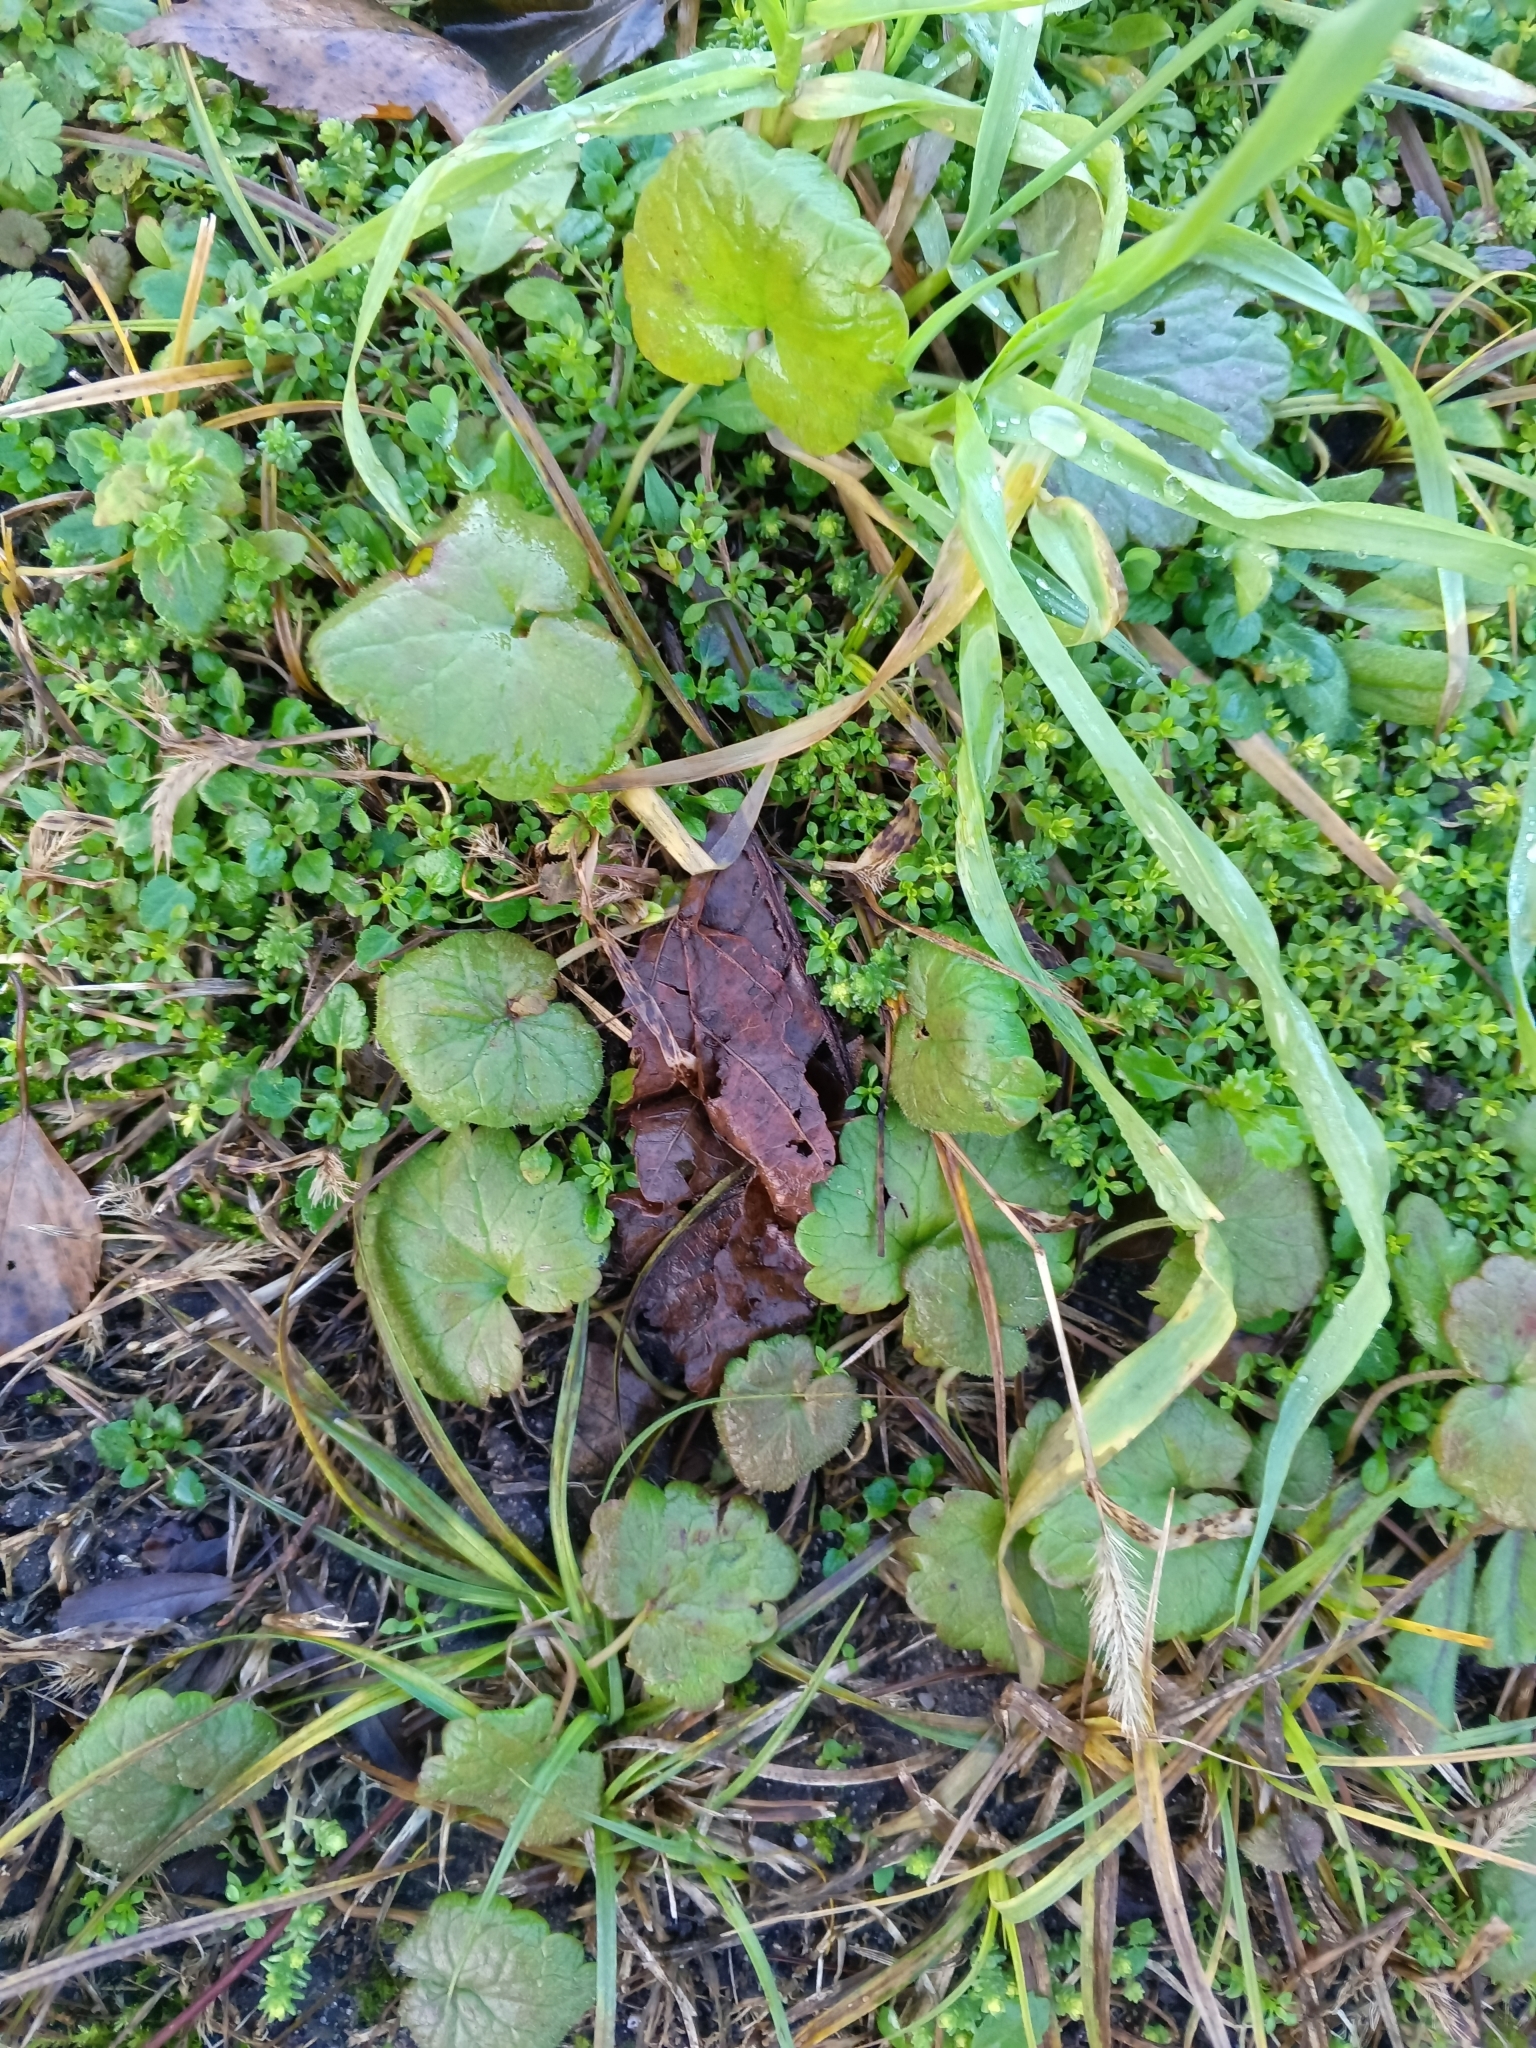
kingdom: Plantae
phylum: Tracheophyta
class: Magnoliopsida
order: Lamiales
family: Lamiaceae
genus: Glechoma
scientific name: Glechoma hederacea
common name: Ground ivy
